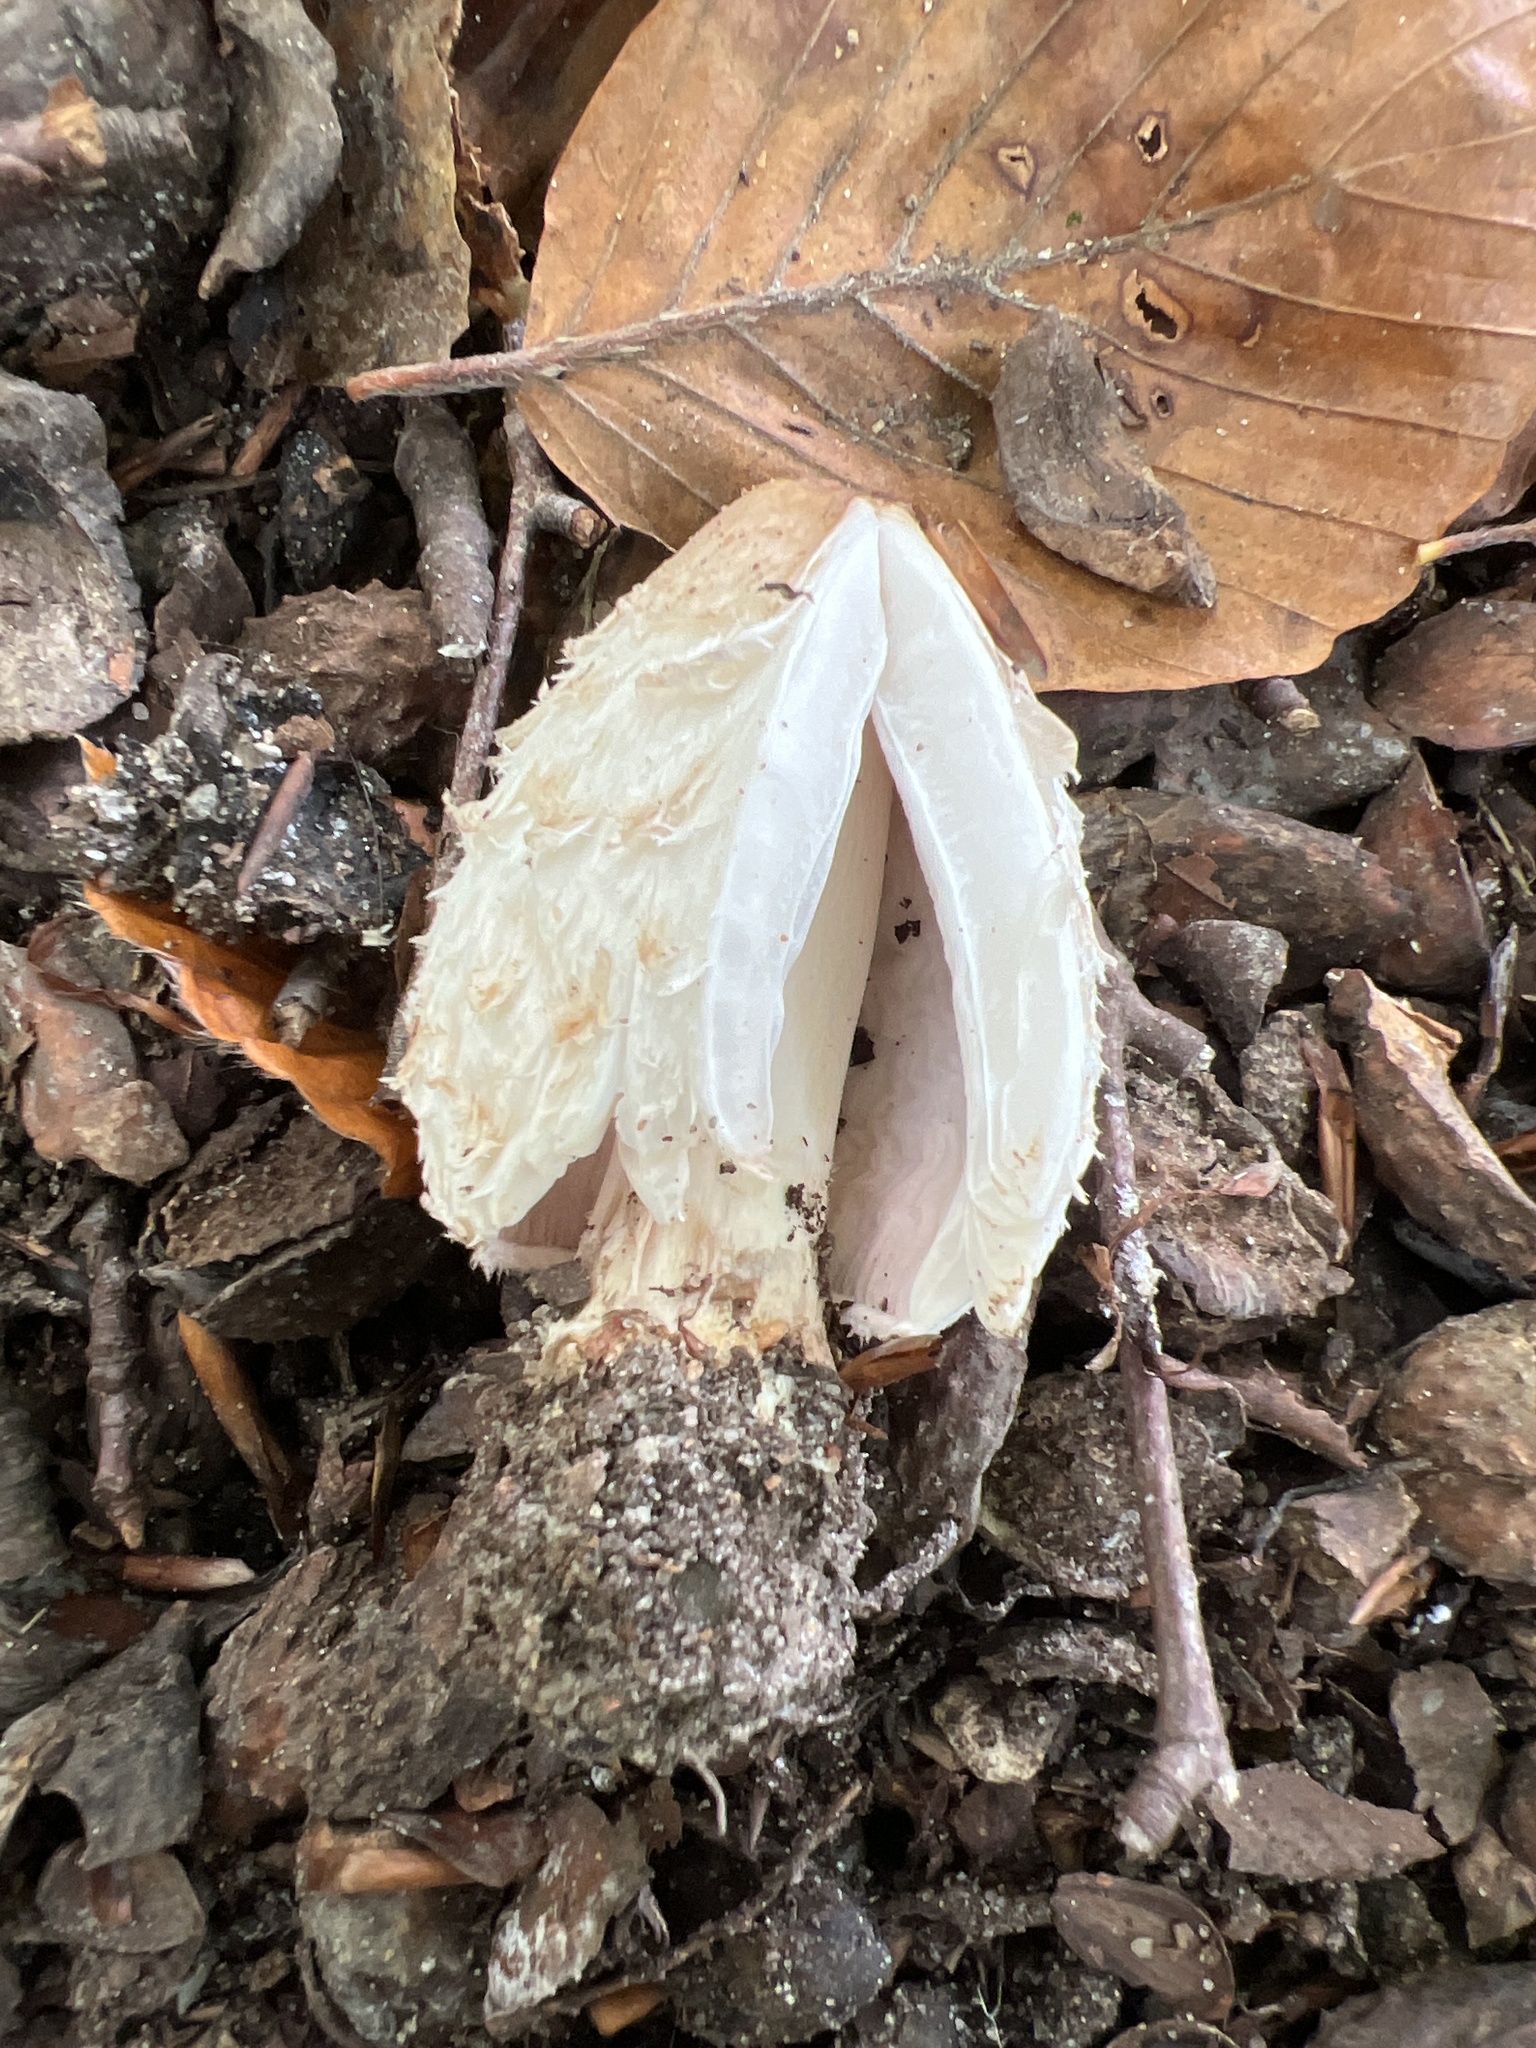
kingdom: Fungi
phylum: Basidiomycota
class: Agaricomycetes
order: Agaricales
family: Agaricaceae
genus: Coprinus
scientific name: Coprinus comatus
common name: Lawyer's wig
